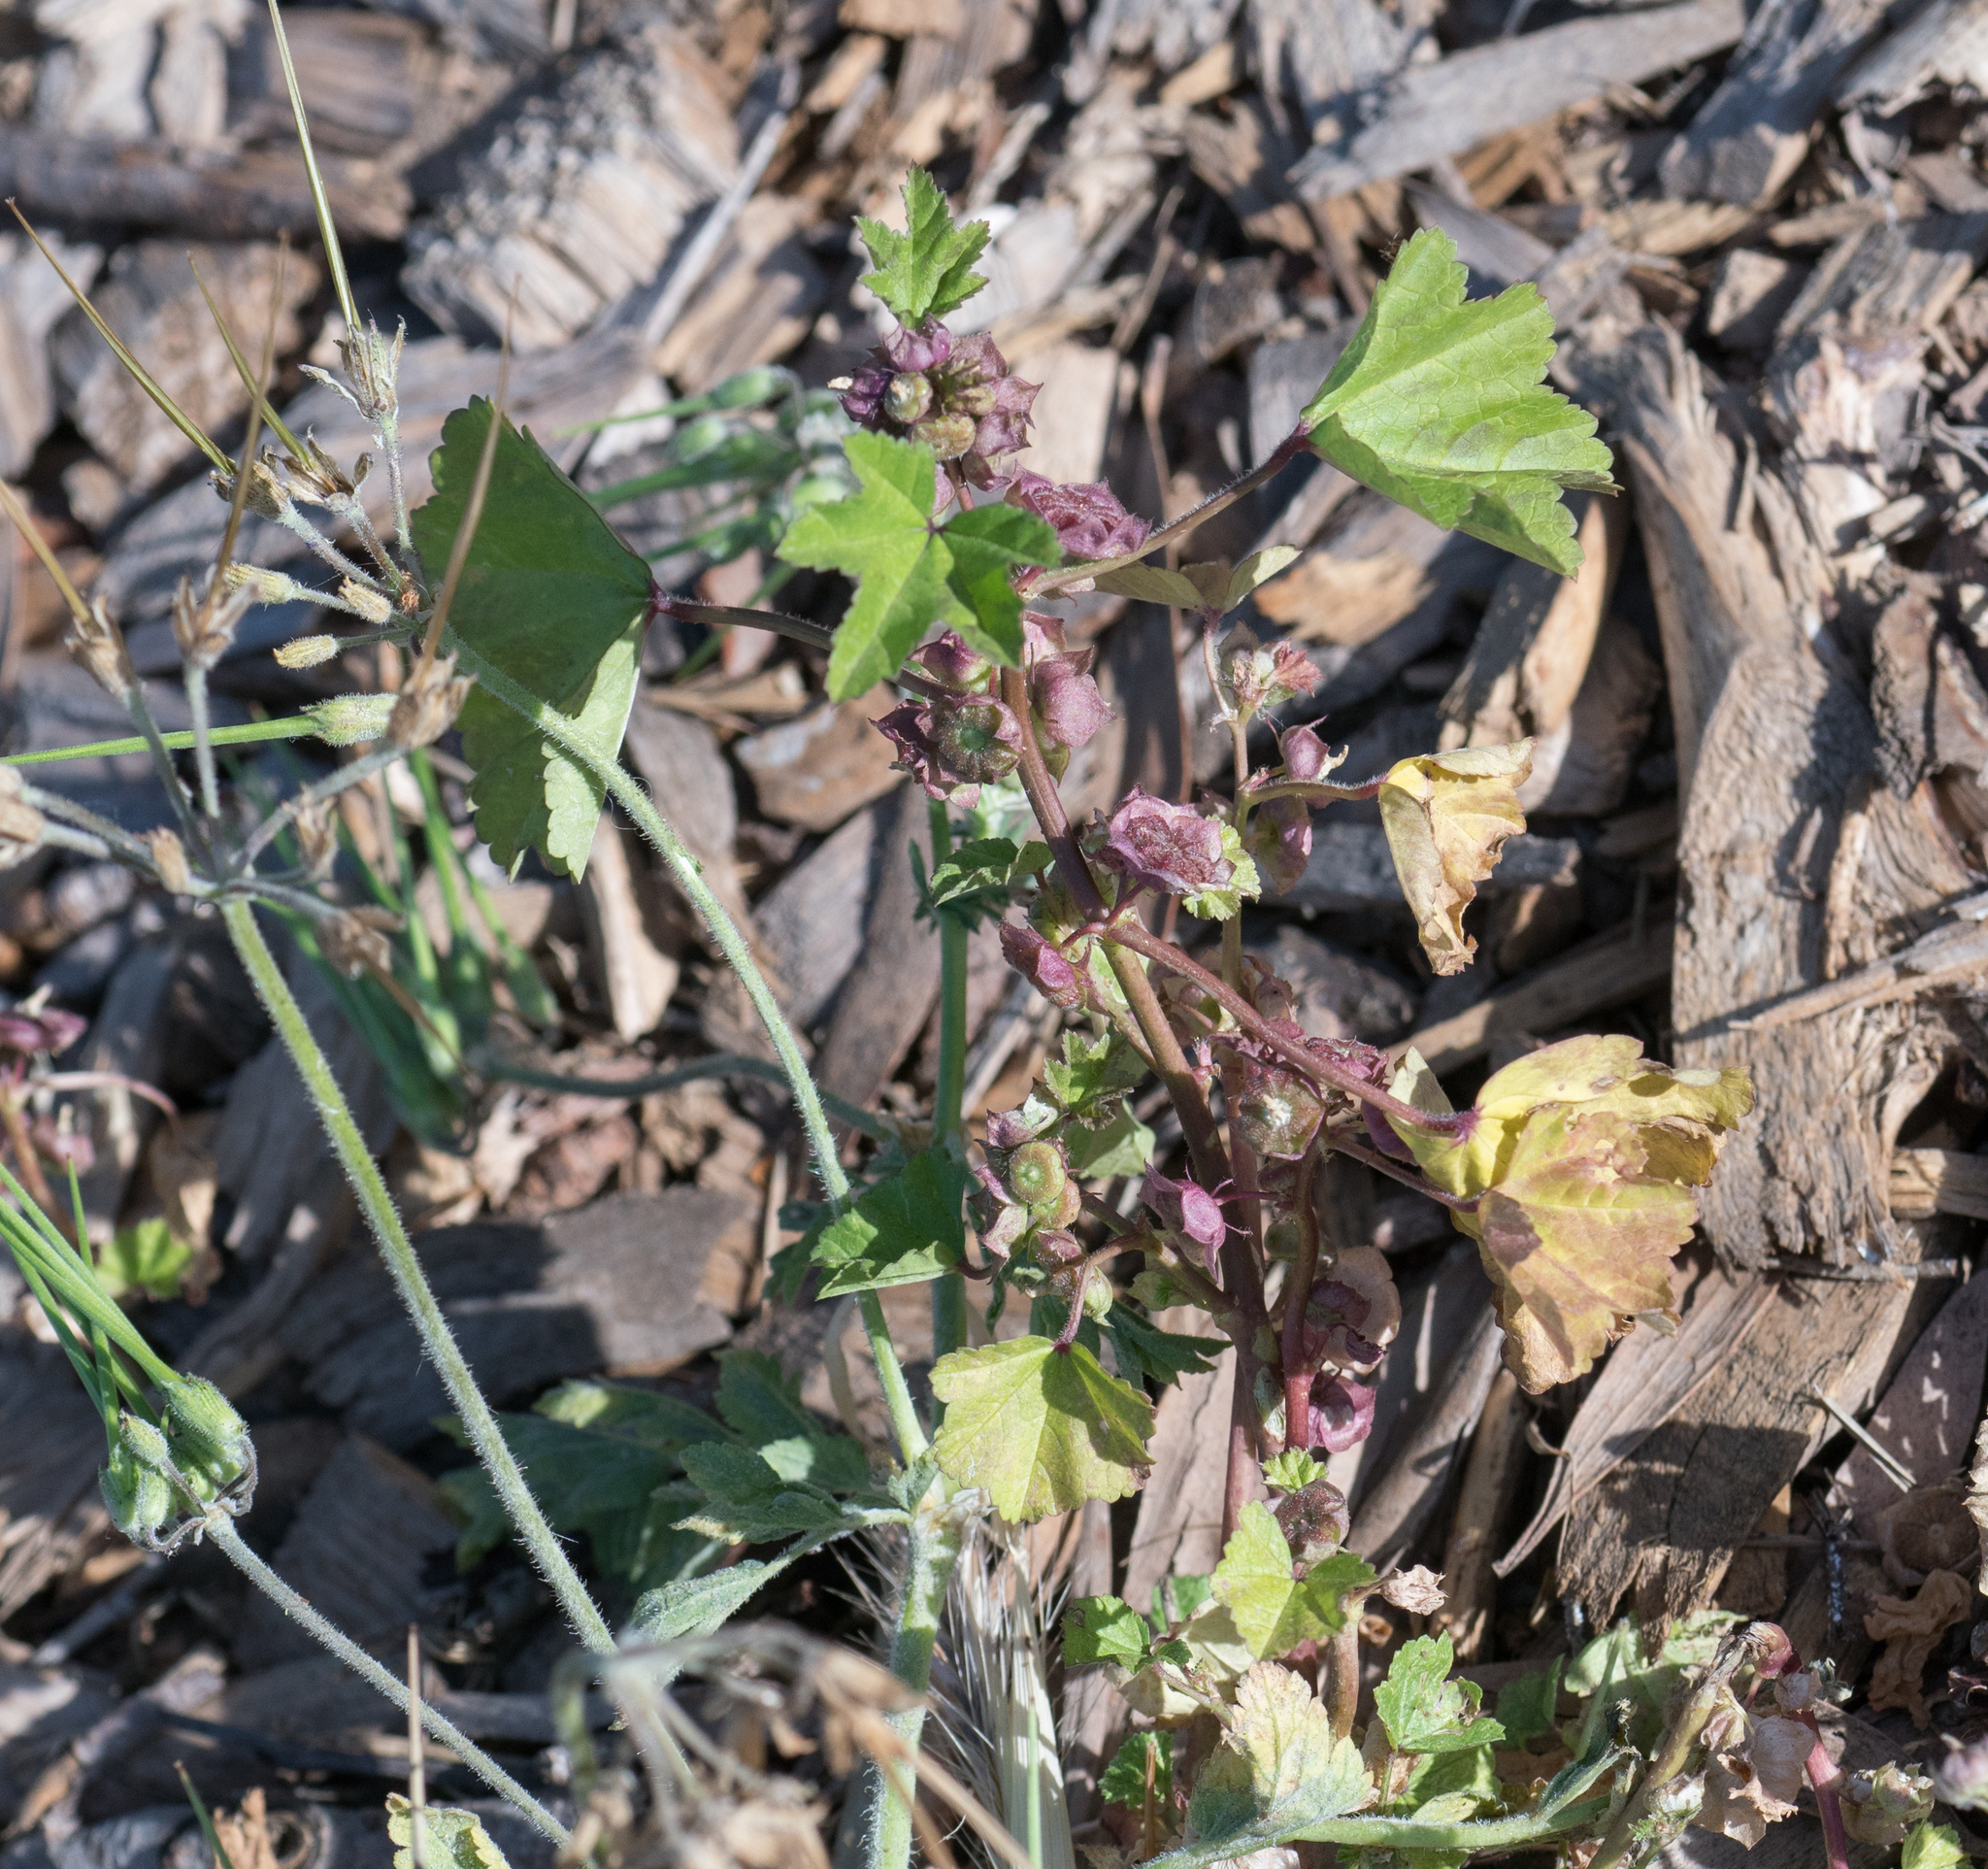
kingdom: Plantae
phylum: Tracheophyta
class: Magnoliopsida
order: Malvales
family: Malvaceae
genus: Malva
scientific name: Malva parviflora
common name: Least mallow
